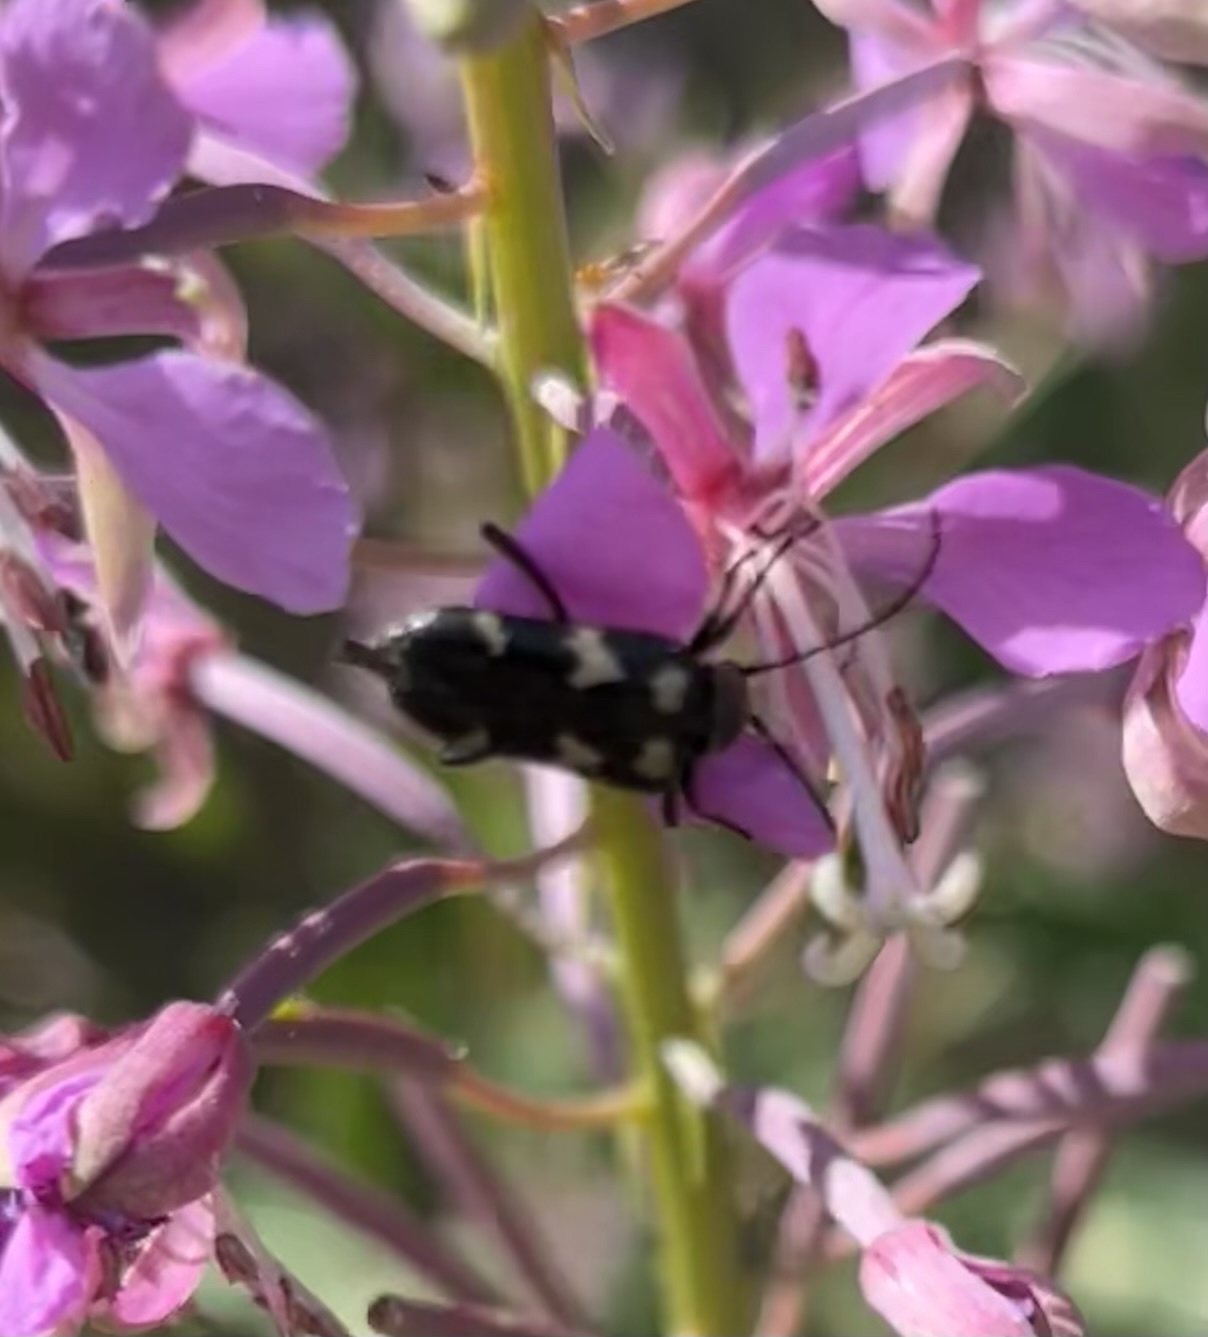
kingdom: Animalia
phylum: Arthropoda
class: Insecta
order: Coleoptera
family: Cerambycidae
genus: Judolia
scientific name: Judolia montivagans
